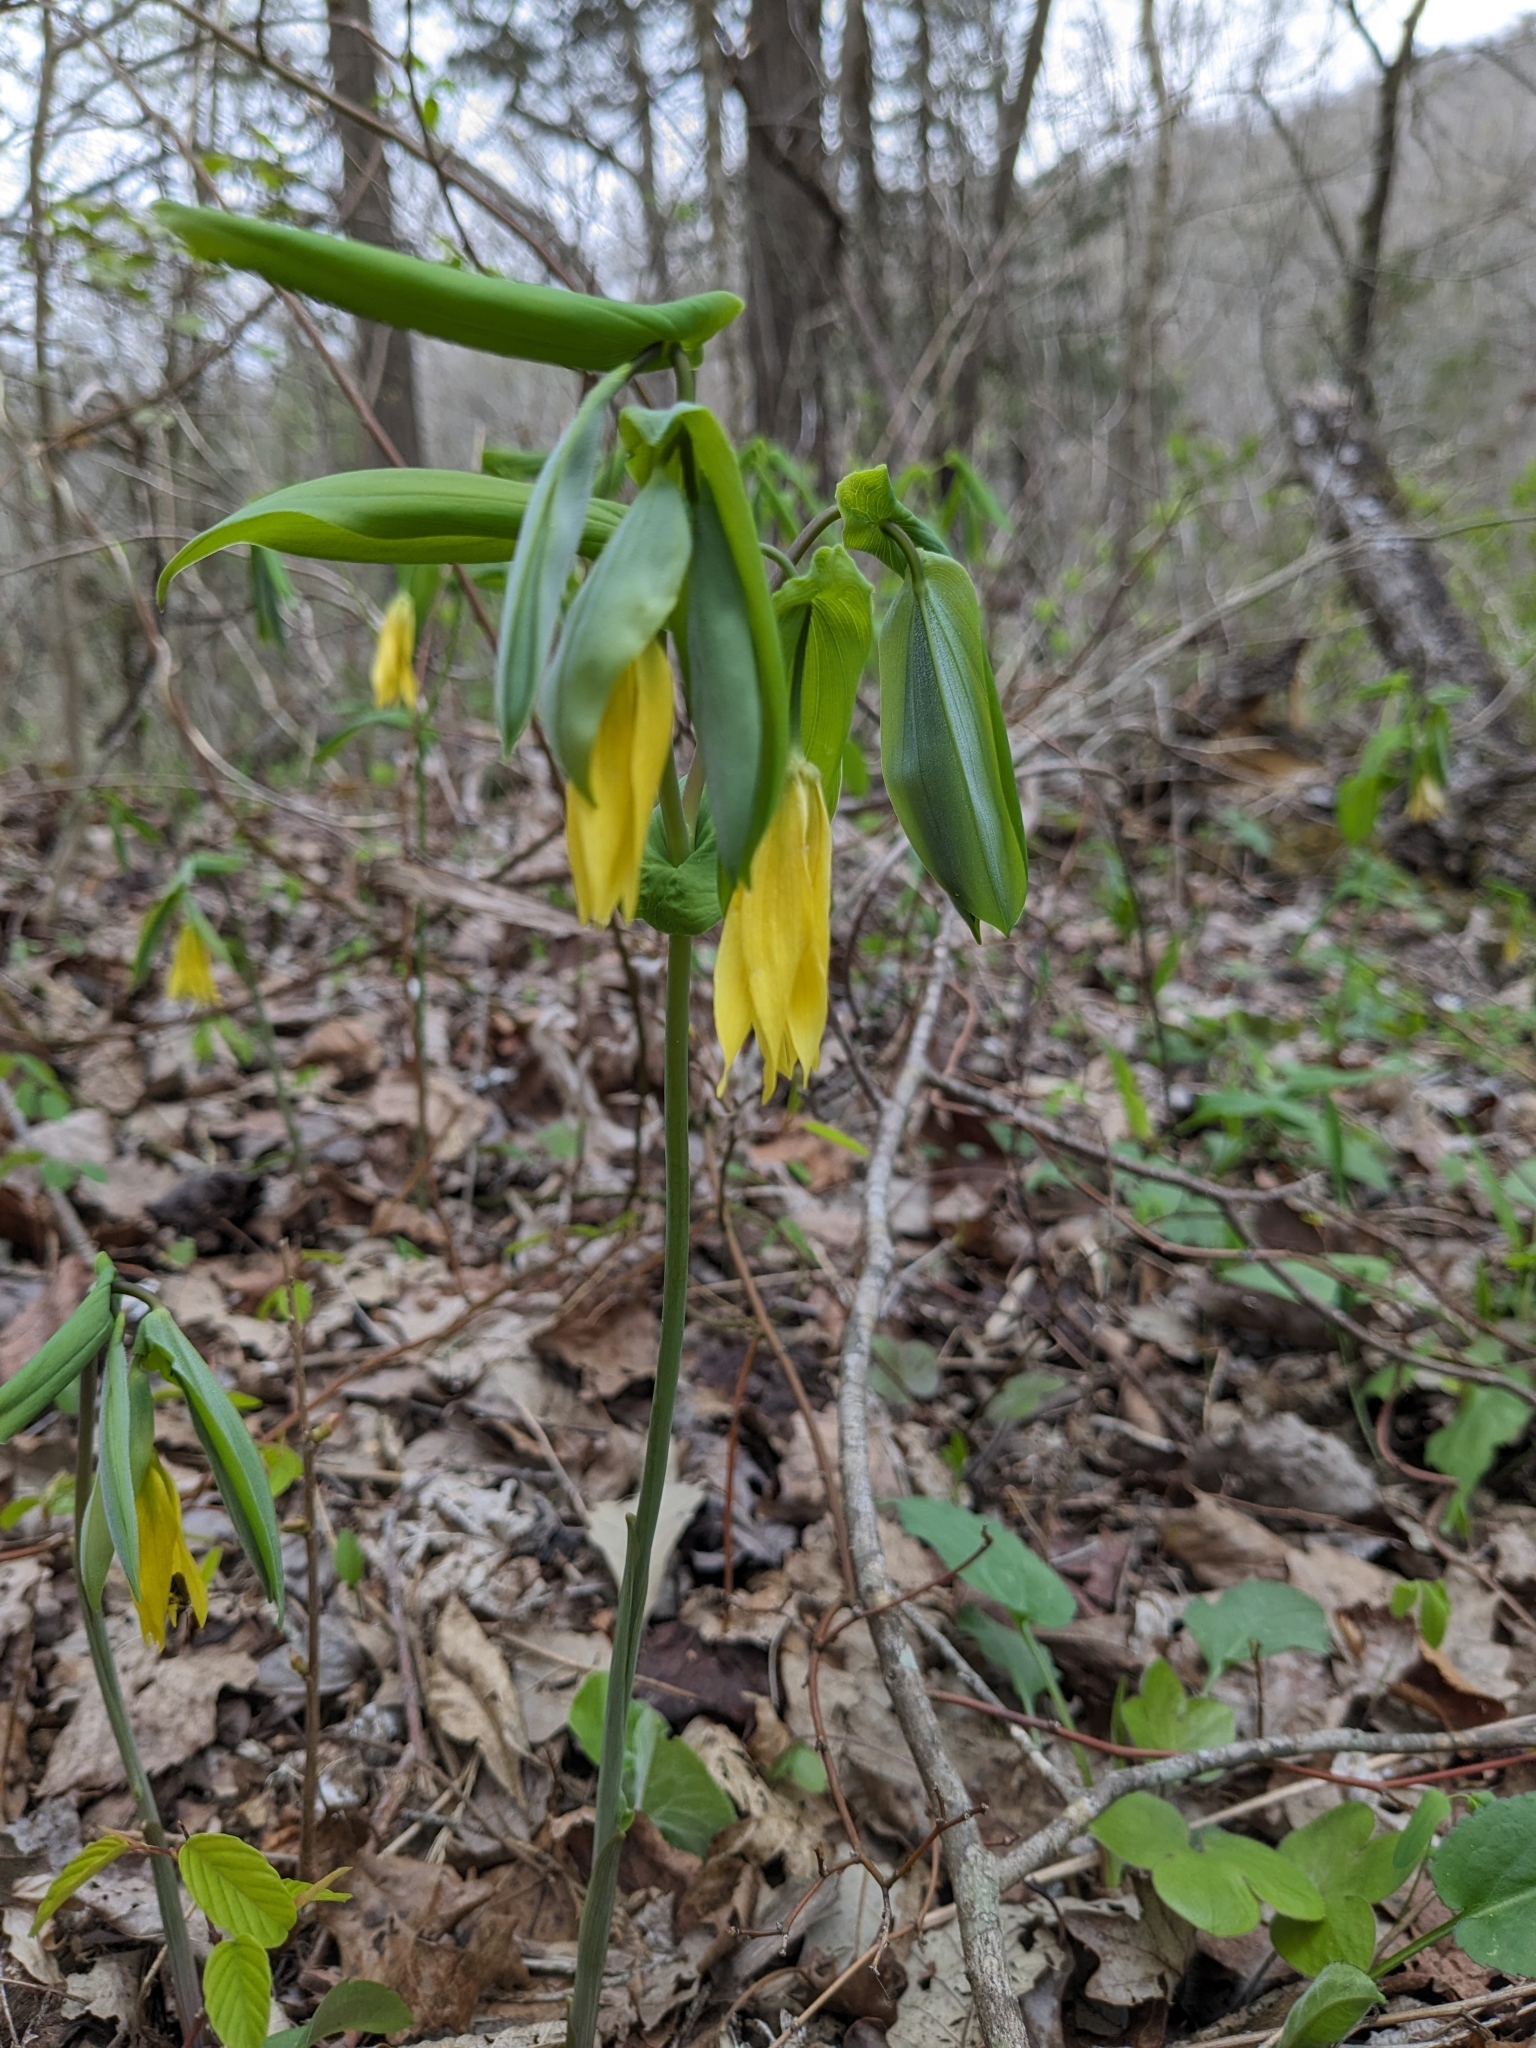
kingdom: Plantae
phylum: Tracheophyta
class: Liliopsida
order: Liliales
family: Colchicaceae
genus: Uvularia
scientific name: Uvularia grandiflora
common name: Bellwort
